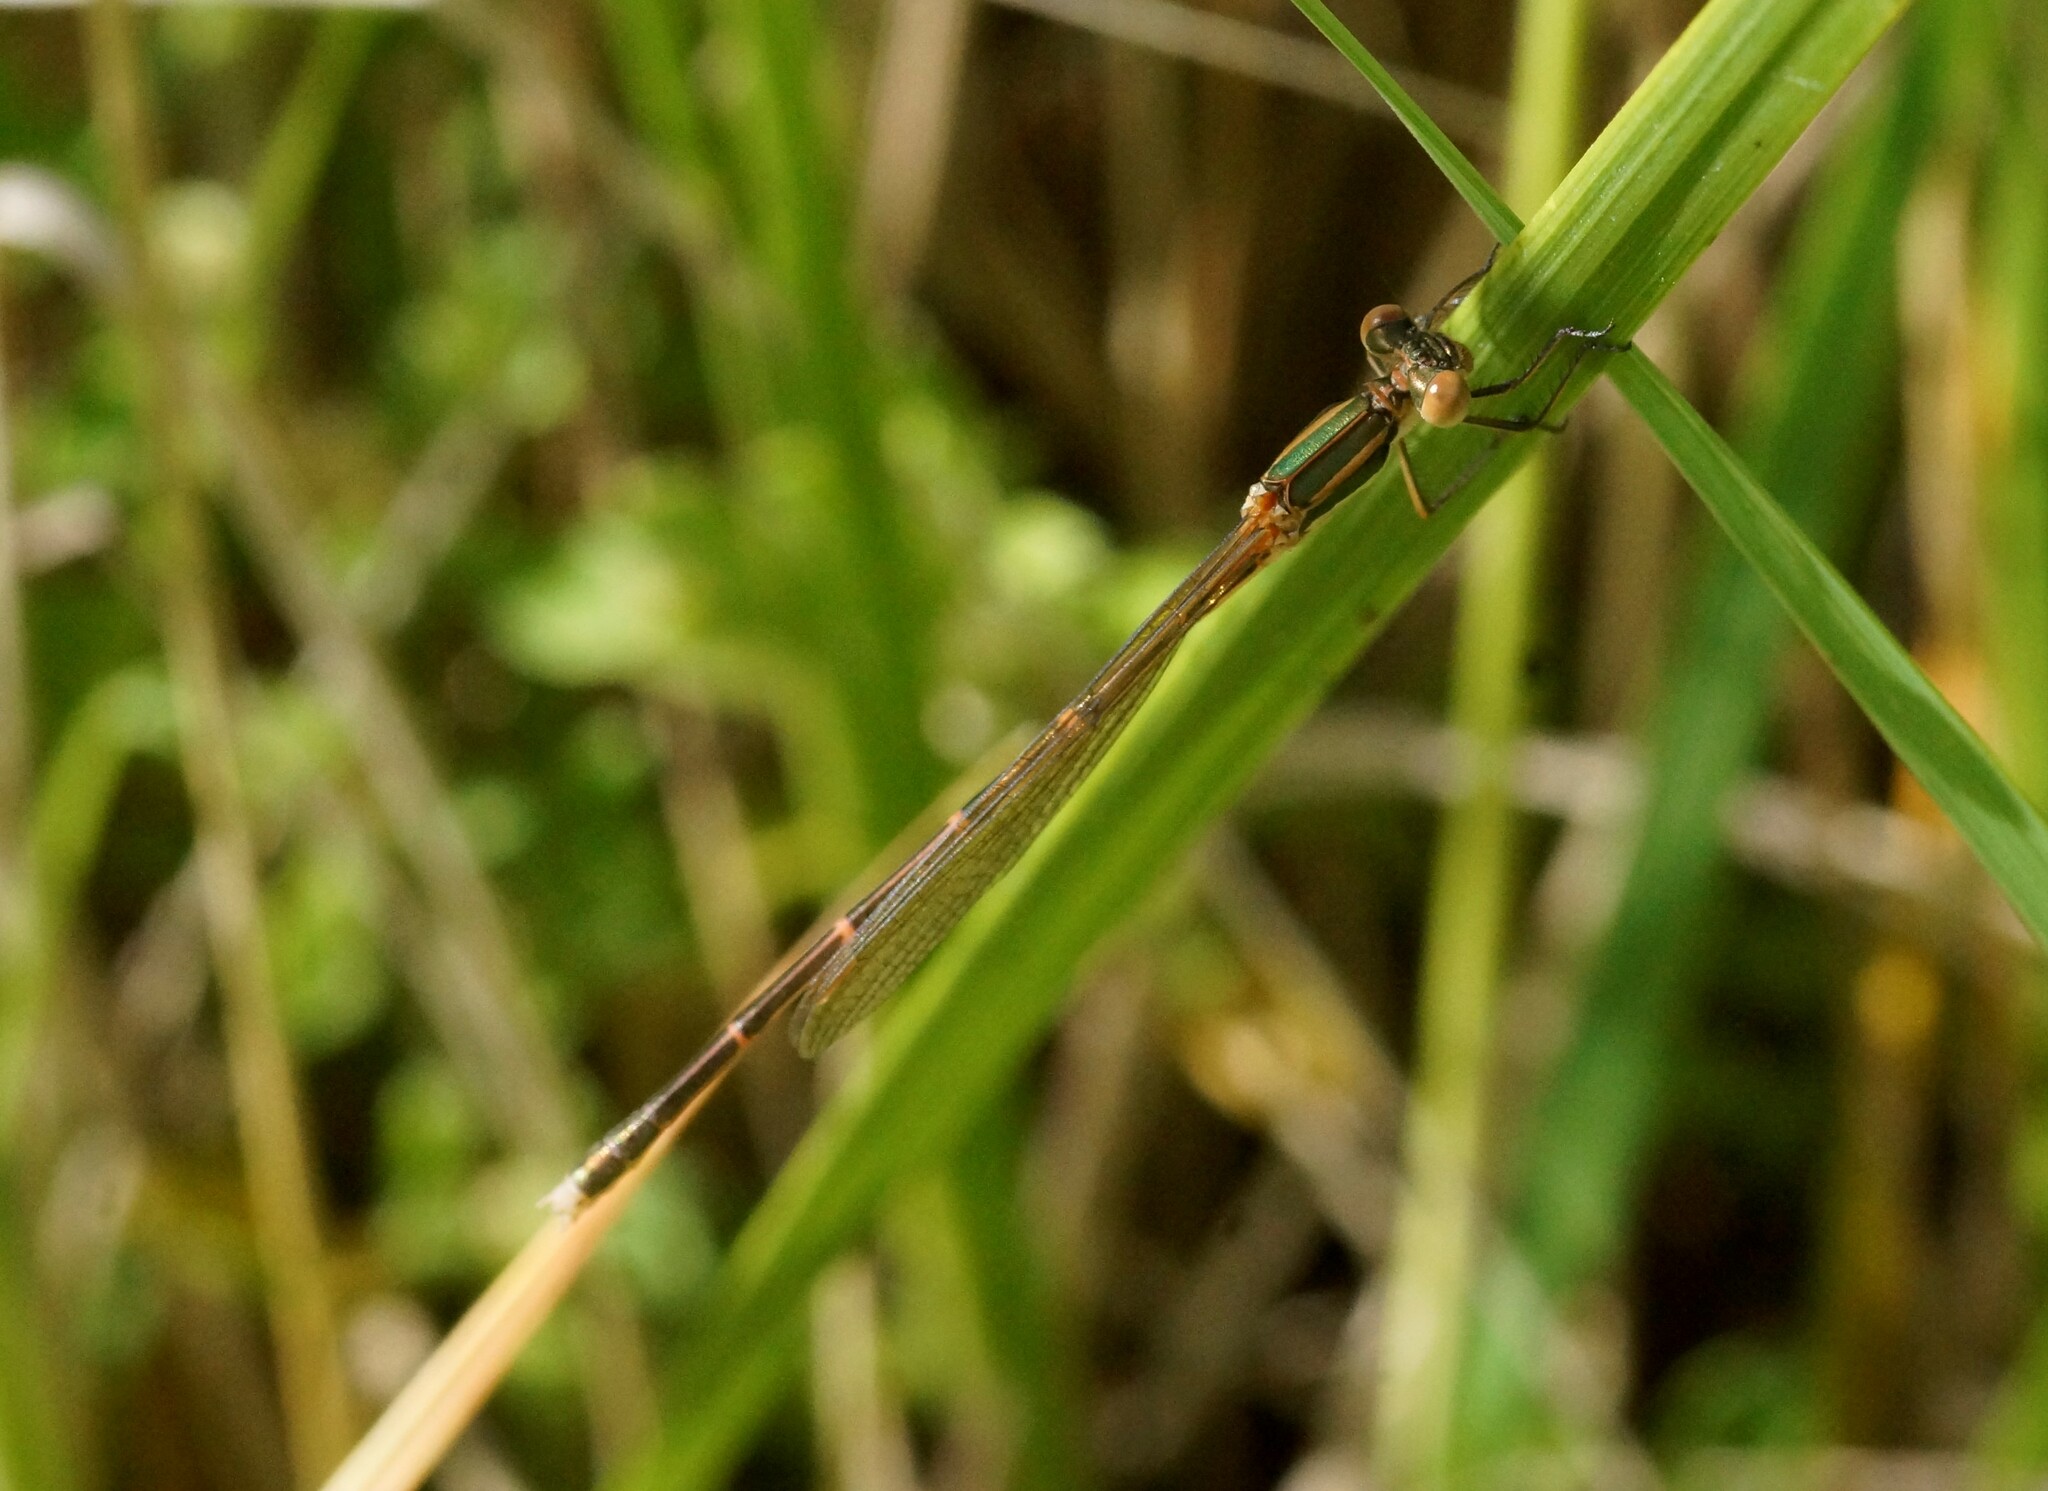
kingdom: Animalia
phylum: Arthropoda
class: Insecta
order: Odonata
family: Lestidae
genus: Austrolestes
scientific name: Austrolestes analis
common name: Slender ringtail
